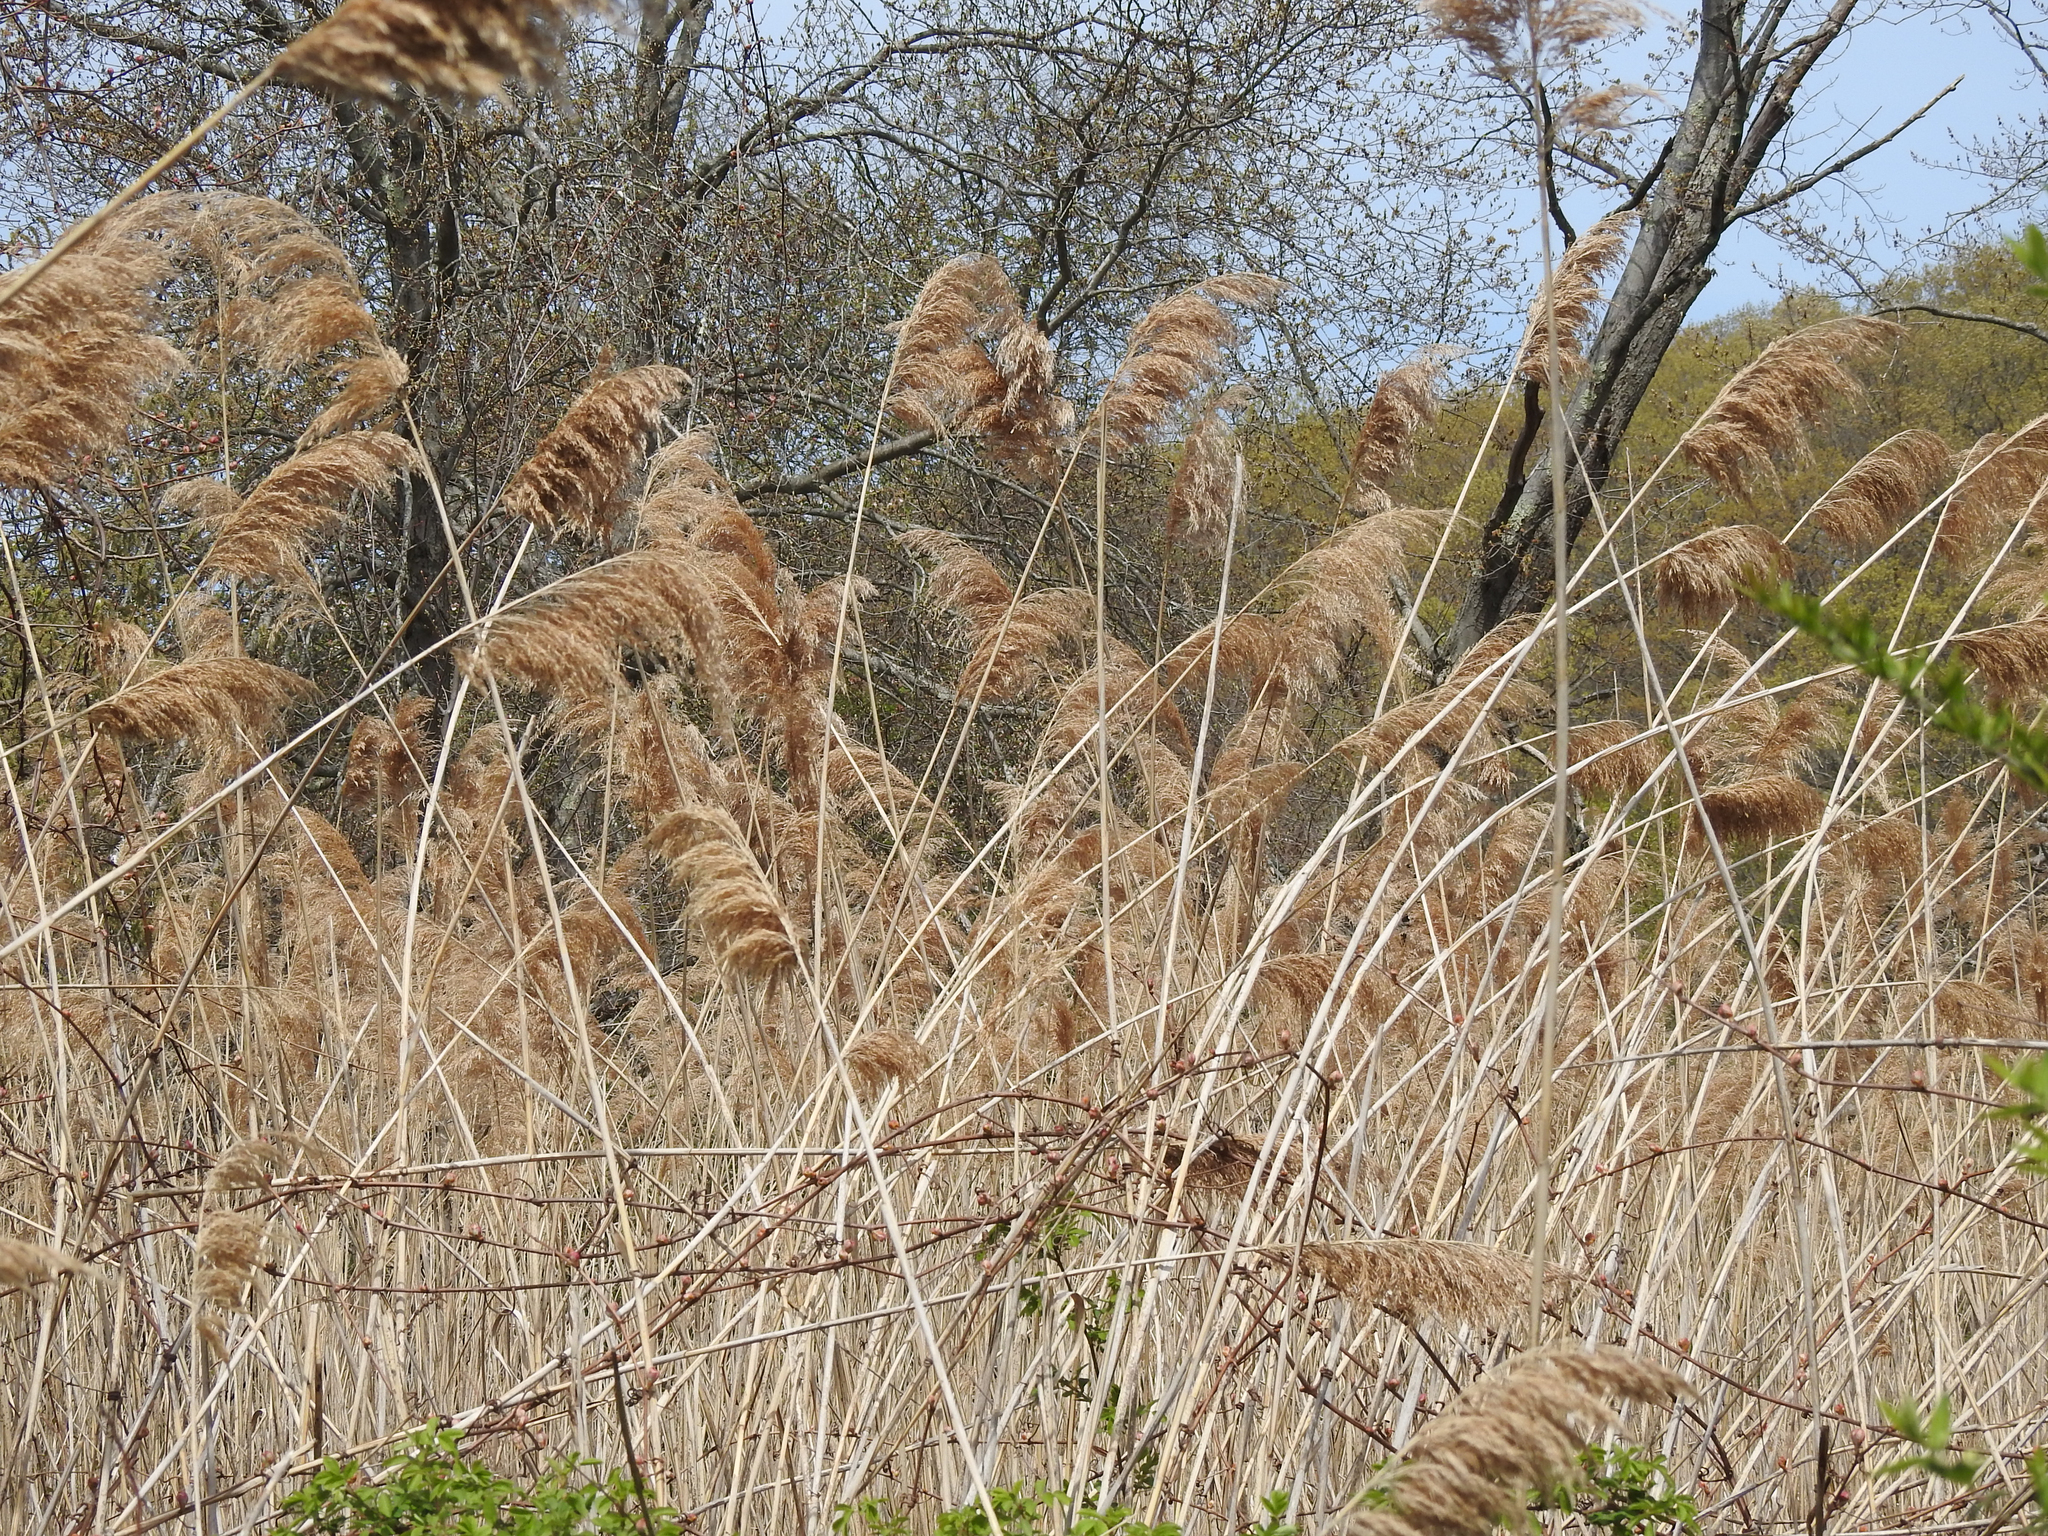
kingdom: Plantae
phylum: Tracheophyta
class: Liliopsida
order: Poales
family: Poaceae
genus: Phragmites
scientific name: Phragmites australis
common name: Common reed
